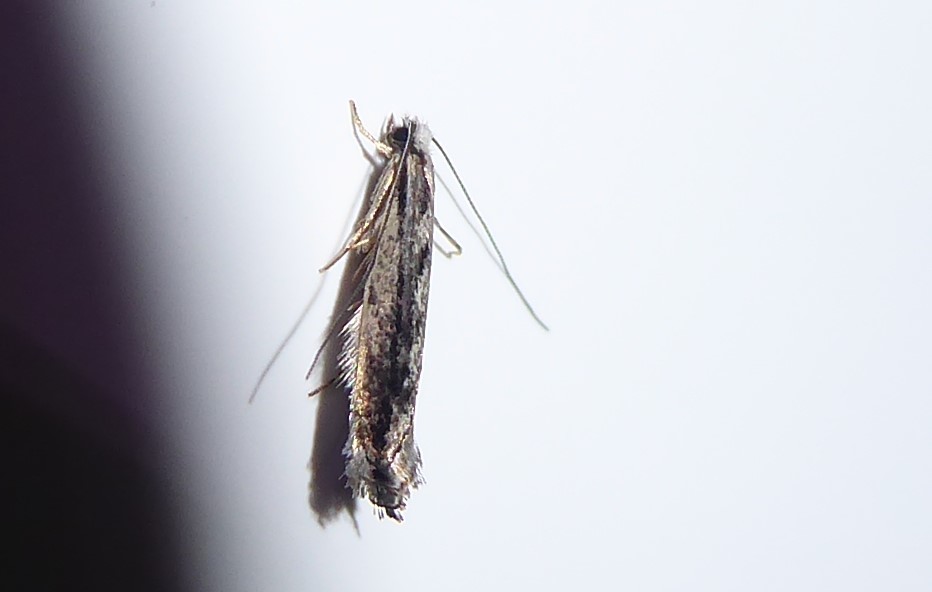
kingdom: Animalia
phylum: Arthropoda
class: Insecta
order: Lepidoptera
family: Tineidae
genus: Erechthias
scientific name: Erechthias fulguritella
